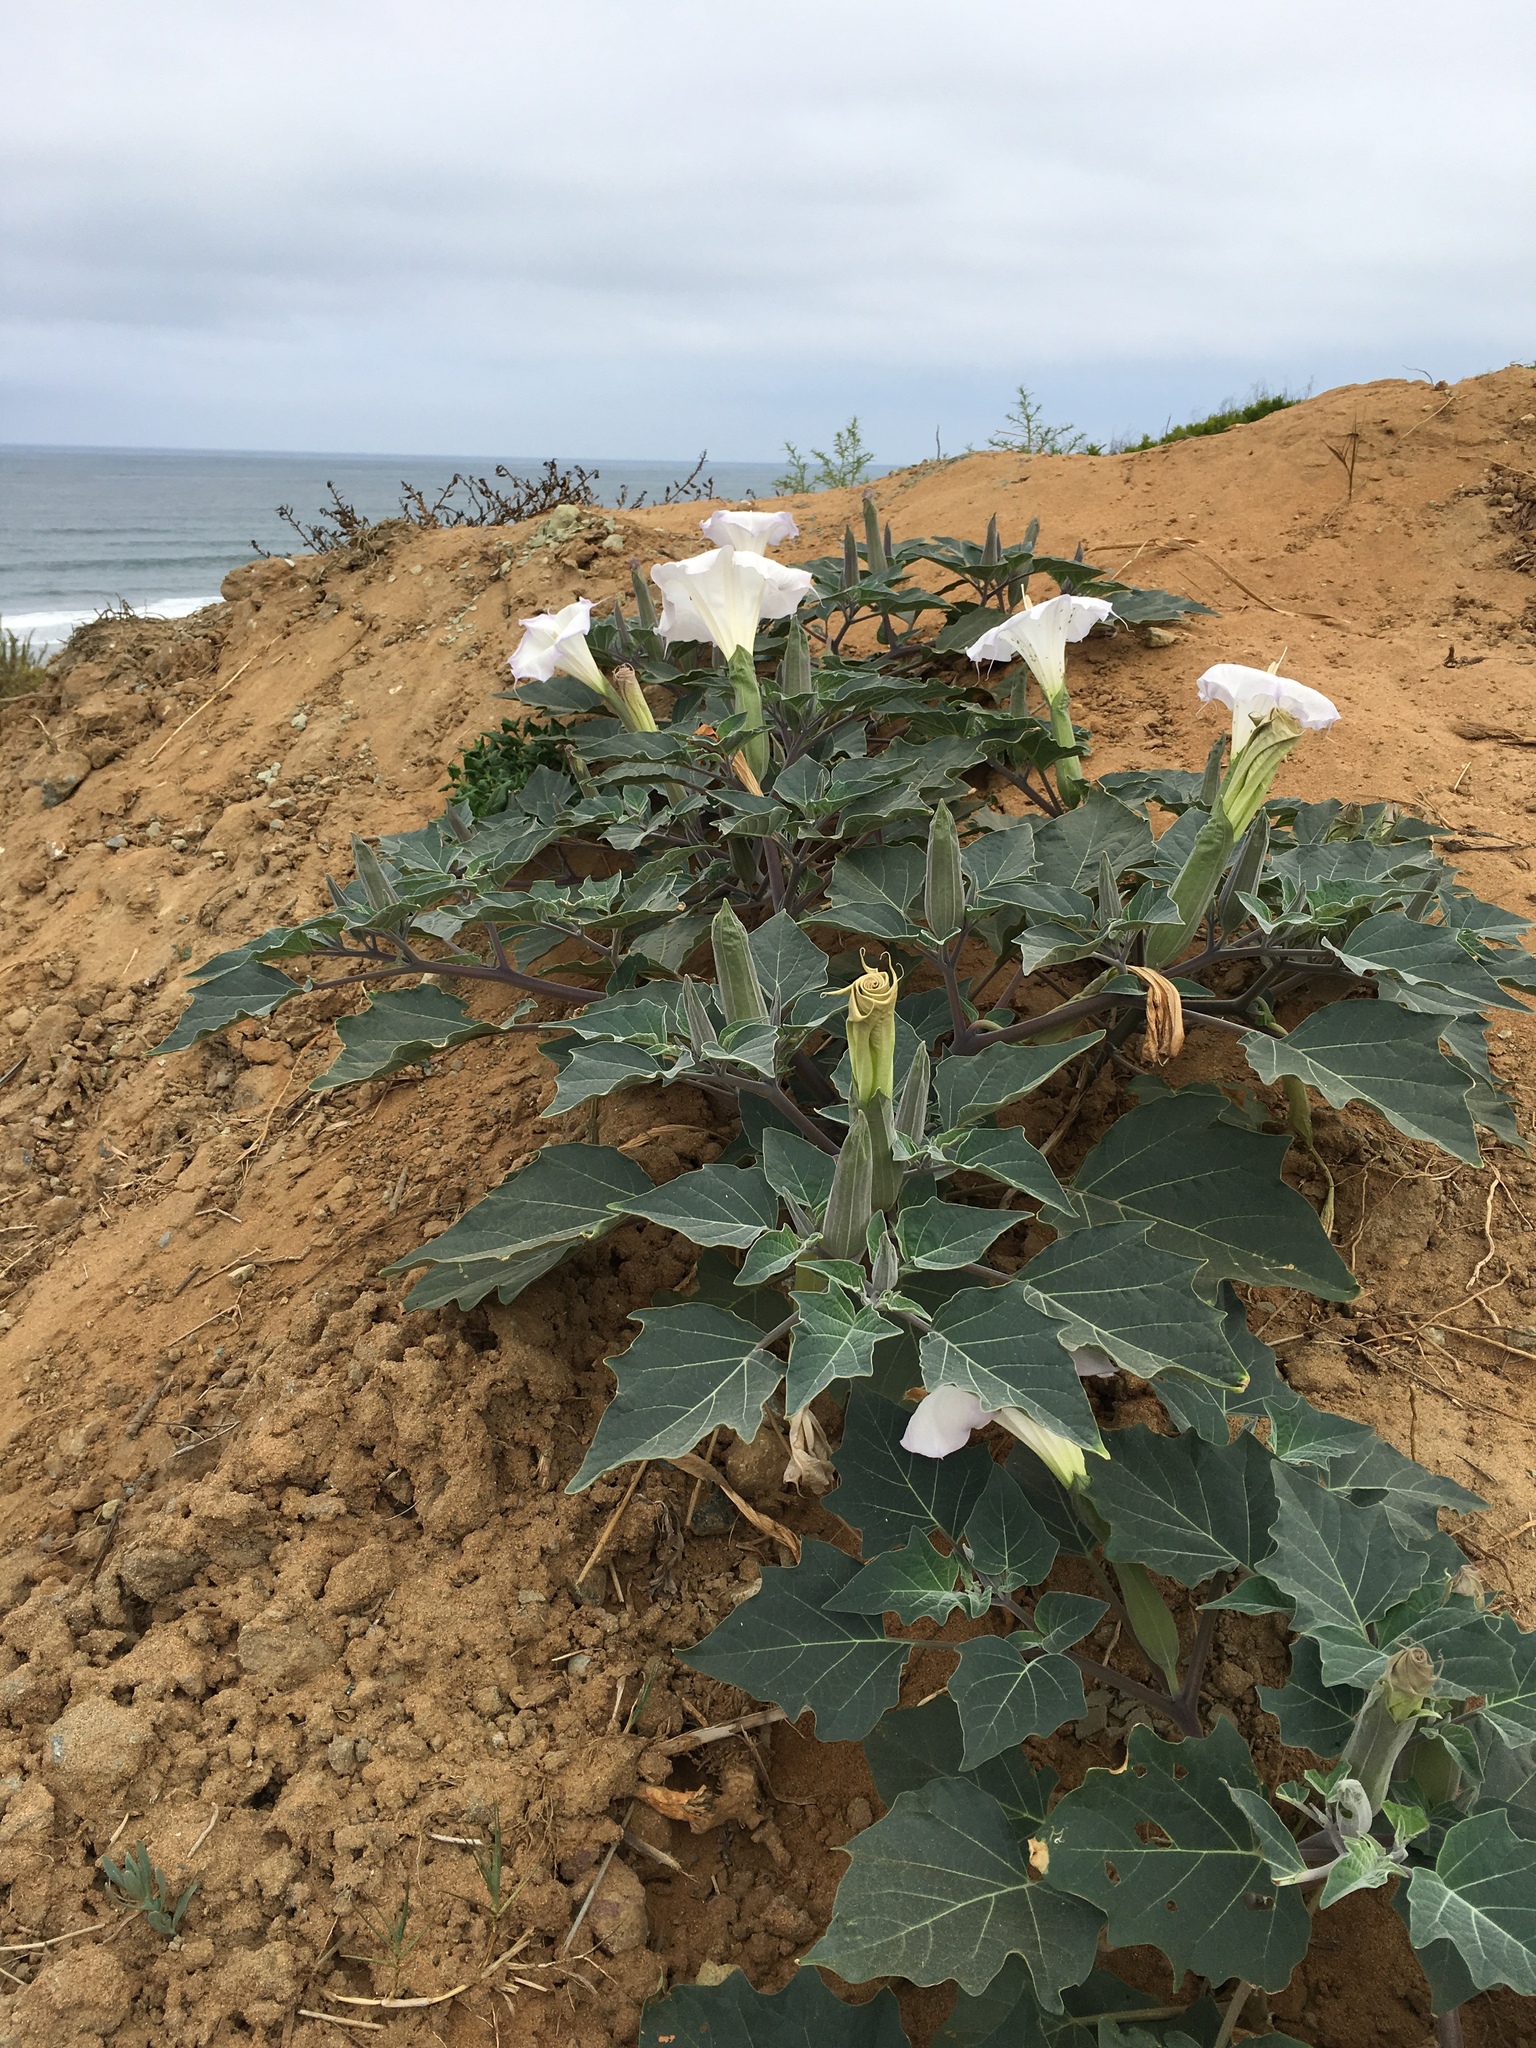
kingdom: Plantae
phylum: Tracheophyta
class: Magnoliopsida
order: Solanales
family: Solanaceae
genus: Datura
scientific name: Datura wrightii
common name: Sacred thorn-apple
